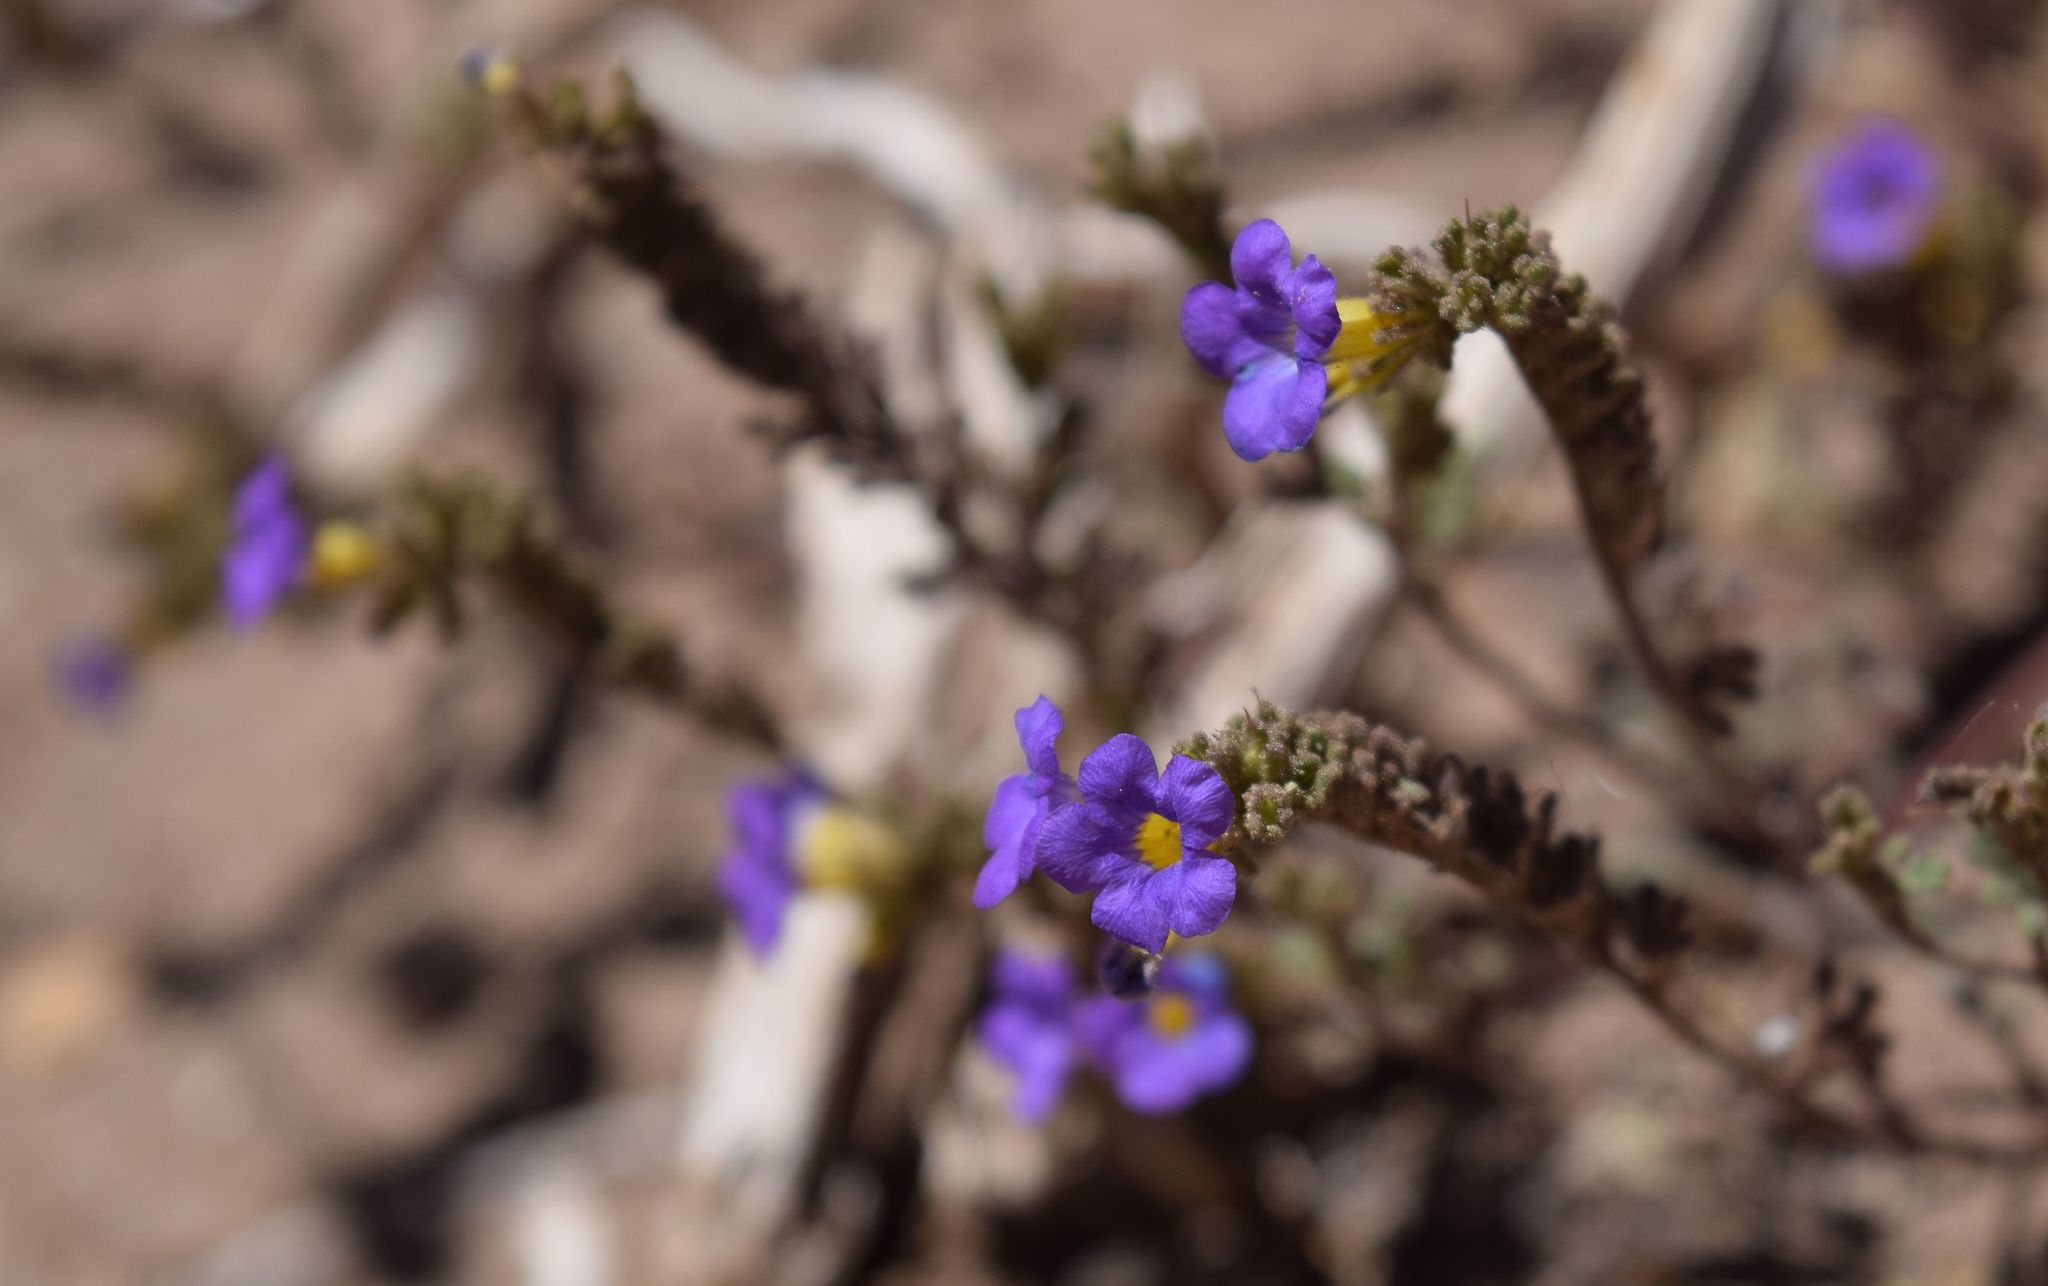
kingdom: Plantae
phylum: Tracheophyta
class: Magnoliopsida
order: Boraginales
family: Hydrophyllaceae
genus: Phacelia
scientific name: Phacelia fremontii
